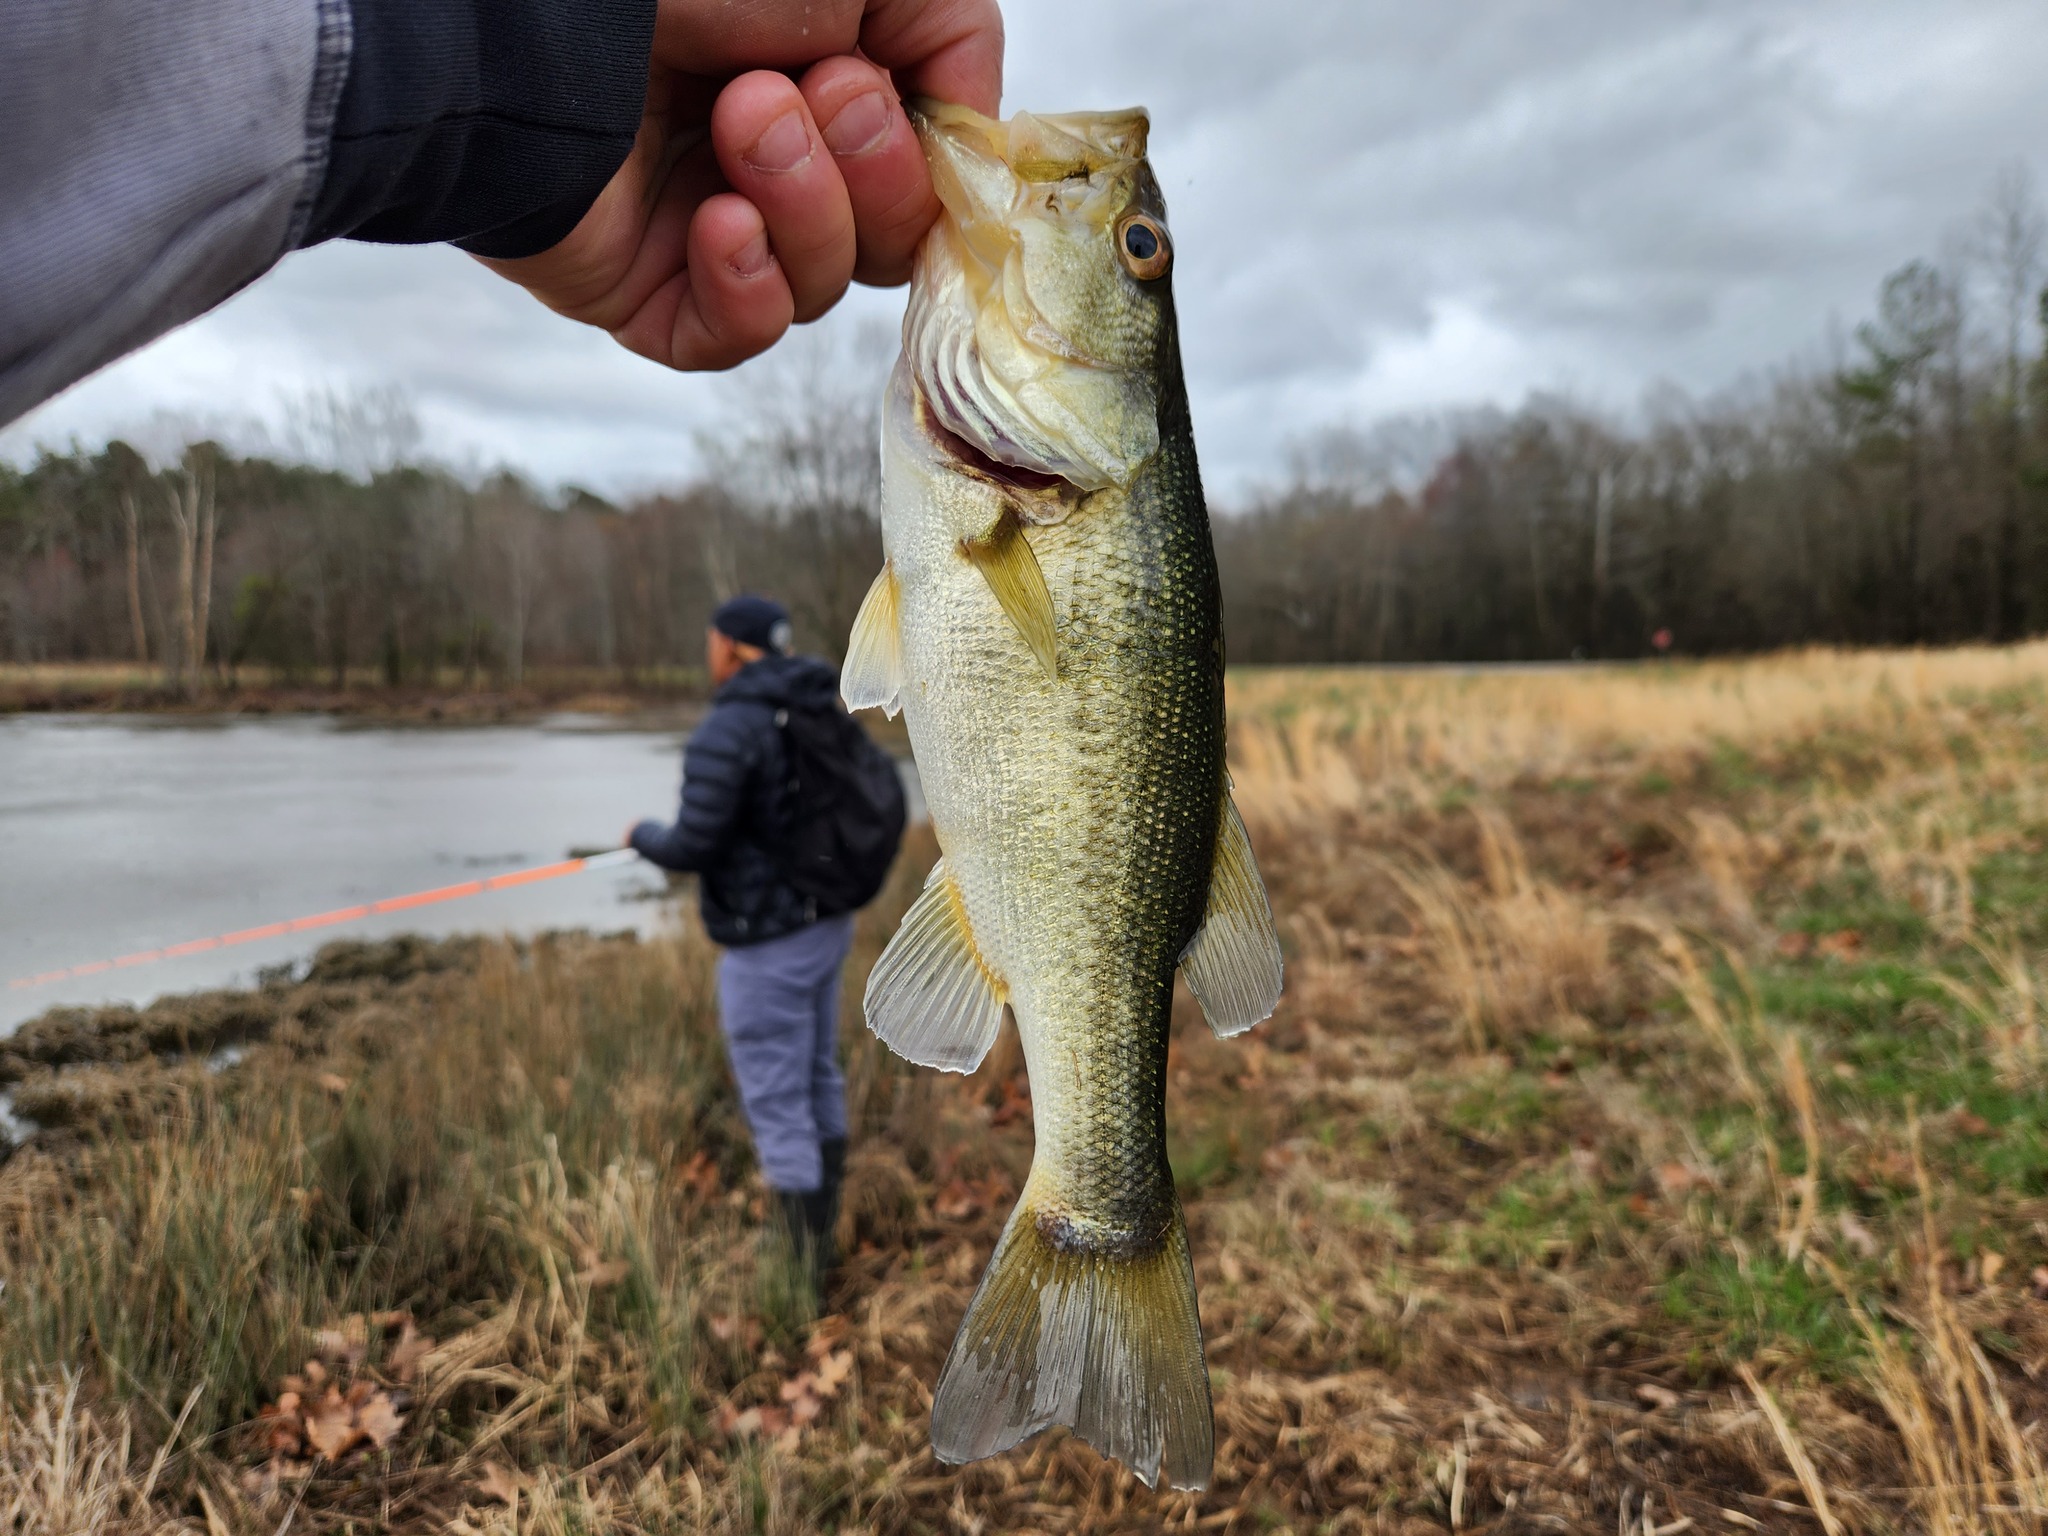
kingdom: Animalia
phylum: Chordata
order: Perciformes
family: Centrarchidae
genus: Micropterus
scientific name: Micropterus
